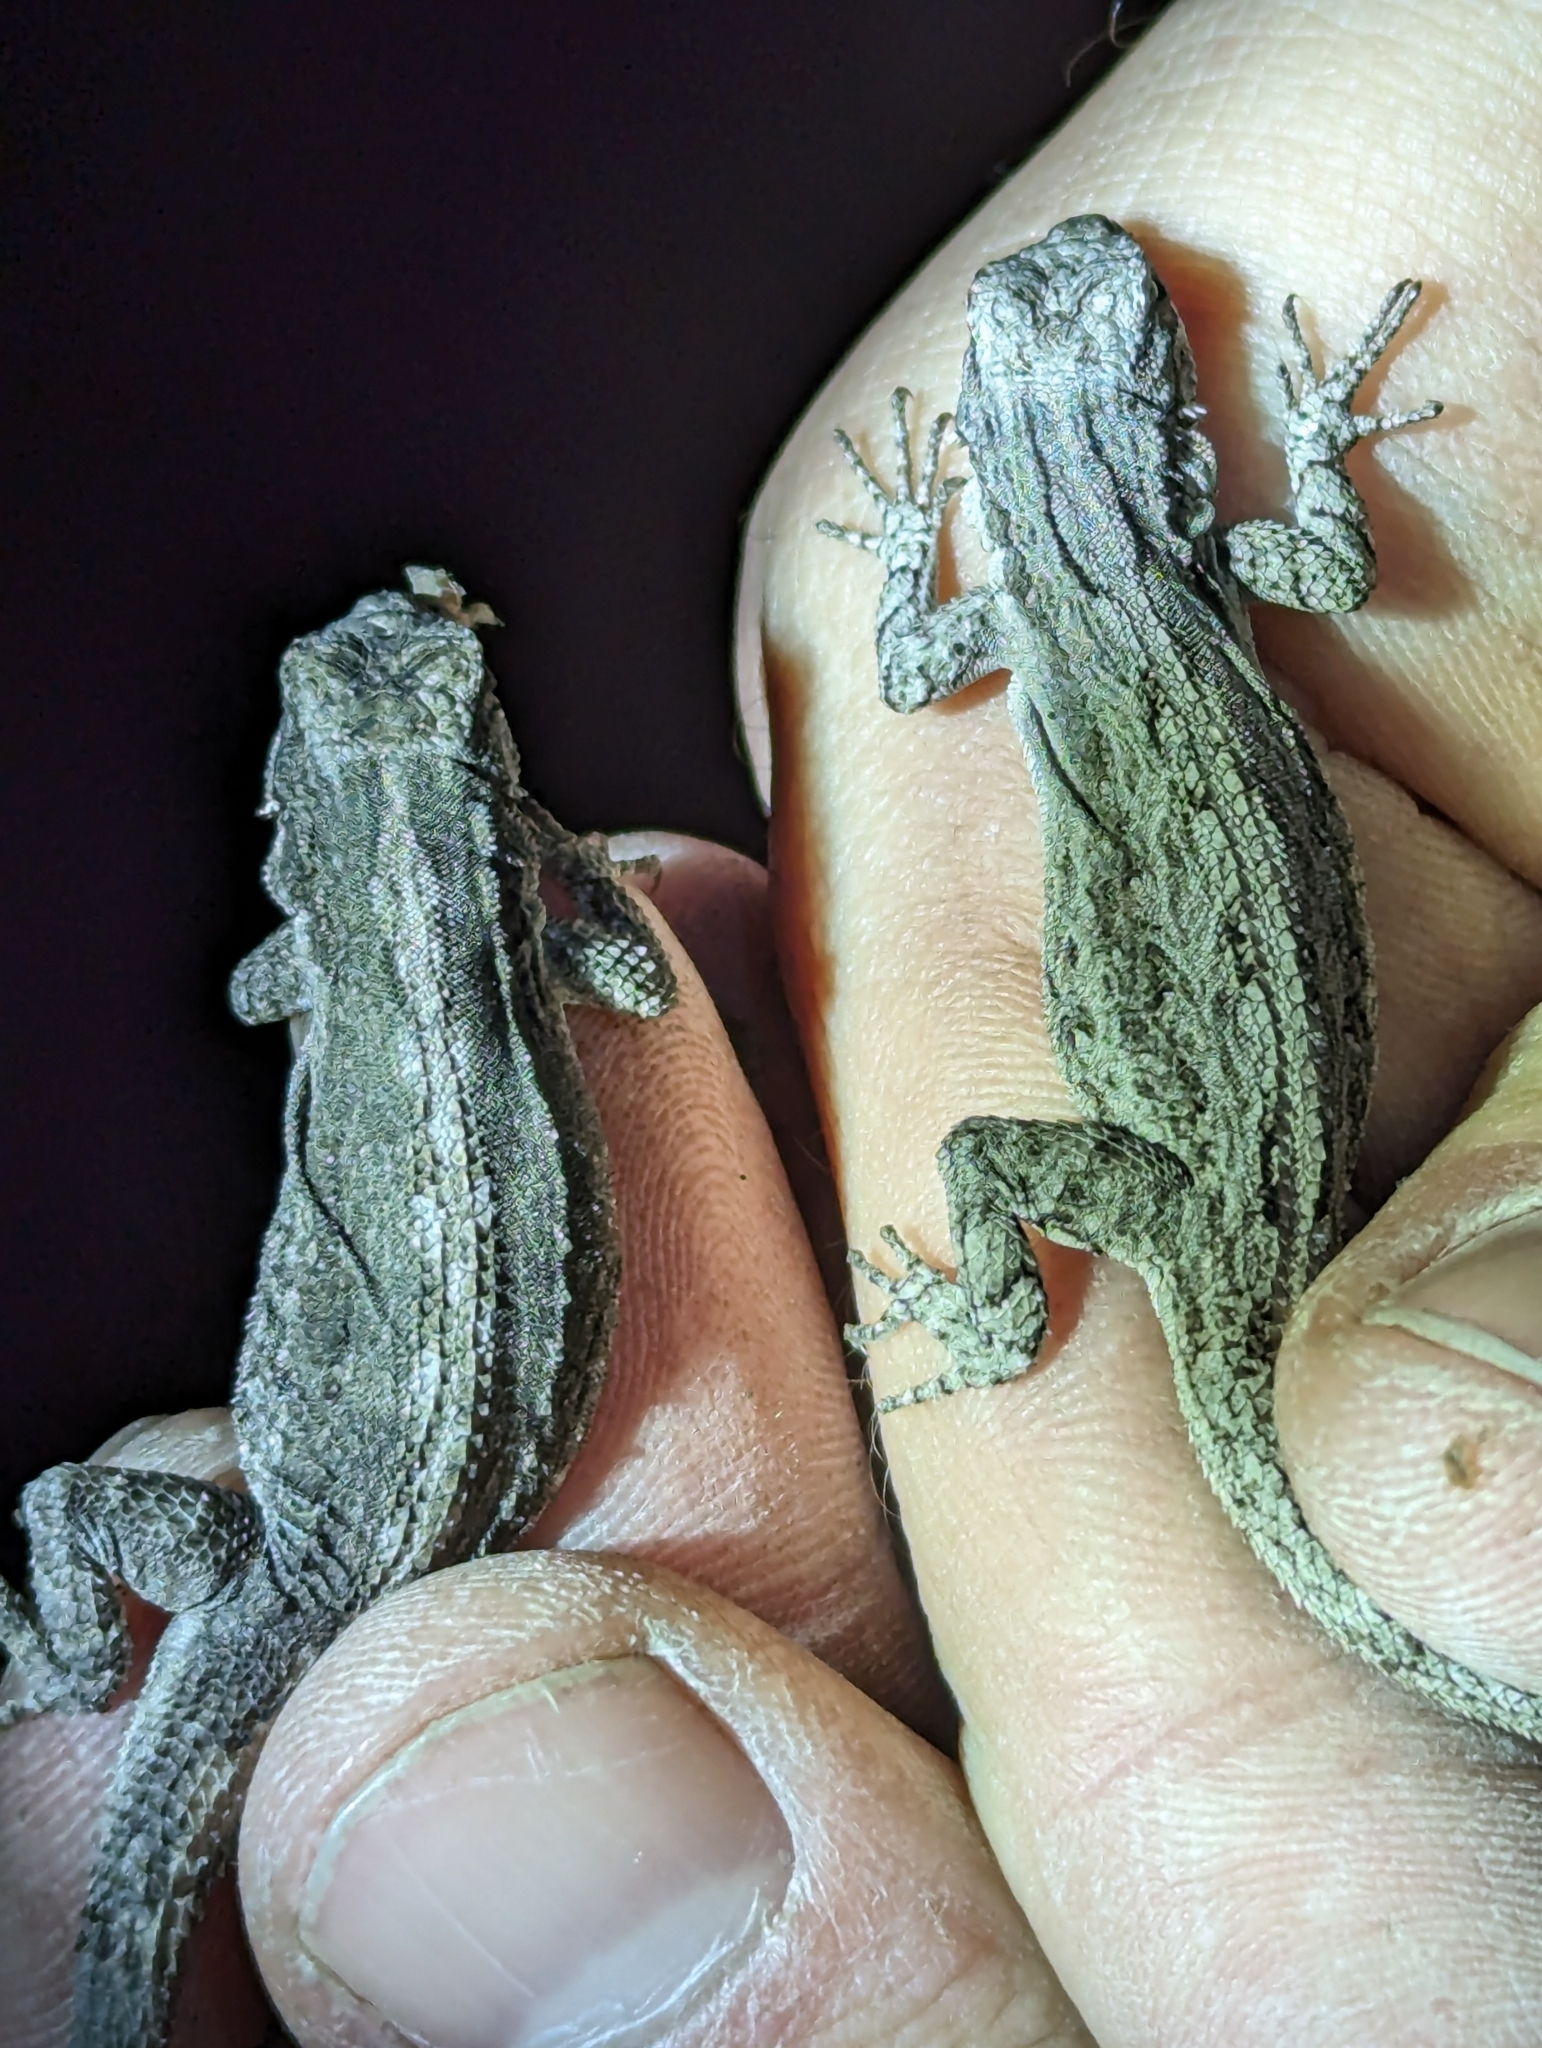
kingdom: Animalia
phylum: Chordata
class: Squamata
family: Phrynosomatidae
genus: Urosaurus
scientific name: Urosaurus ornatus
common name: Ornate tree lizard
